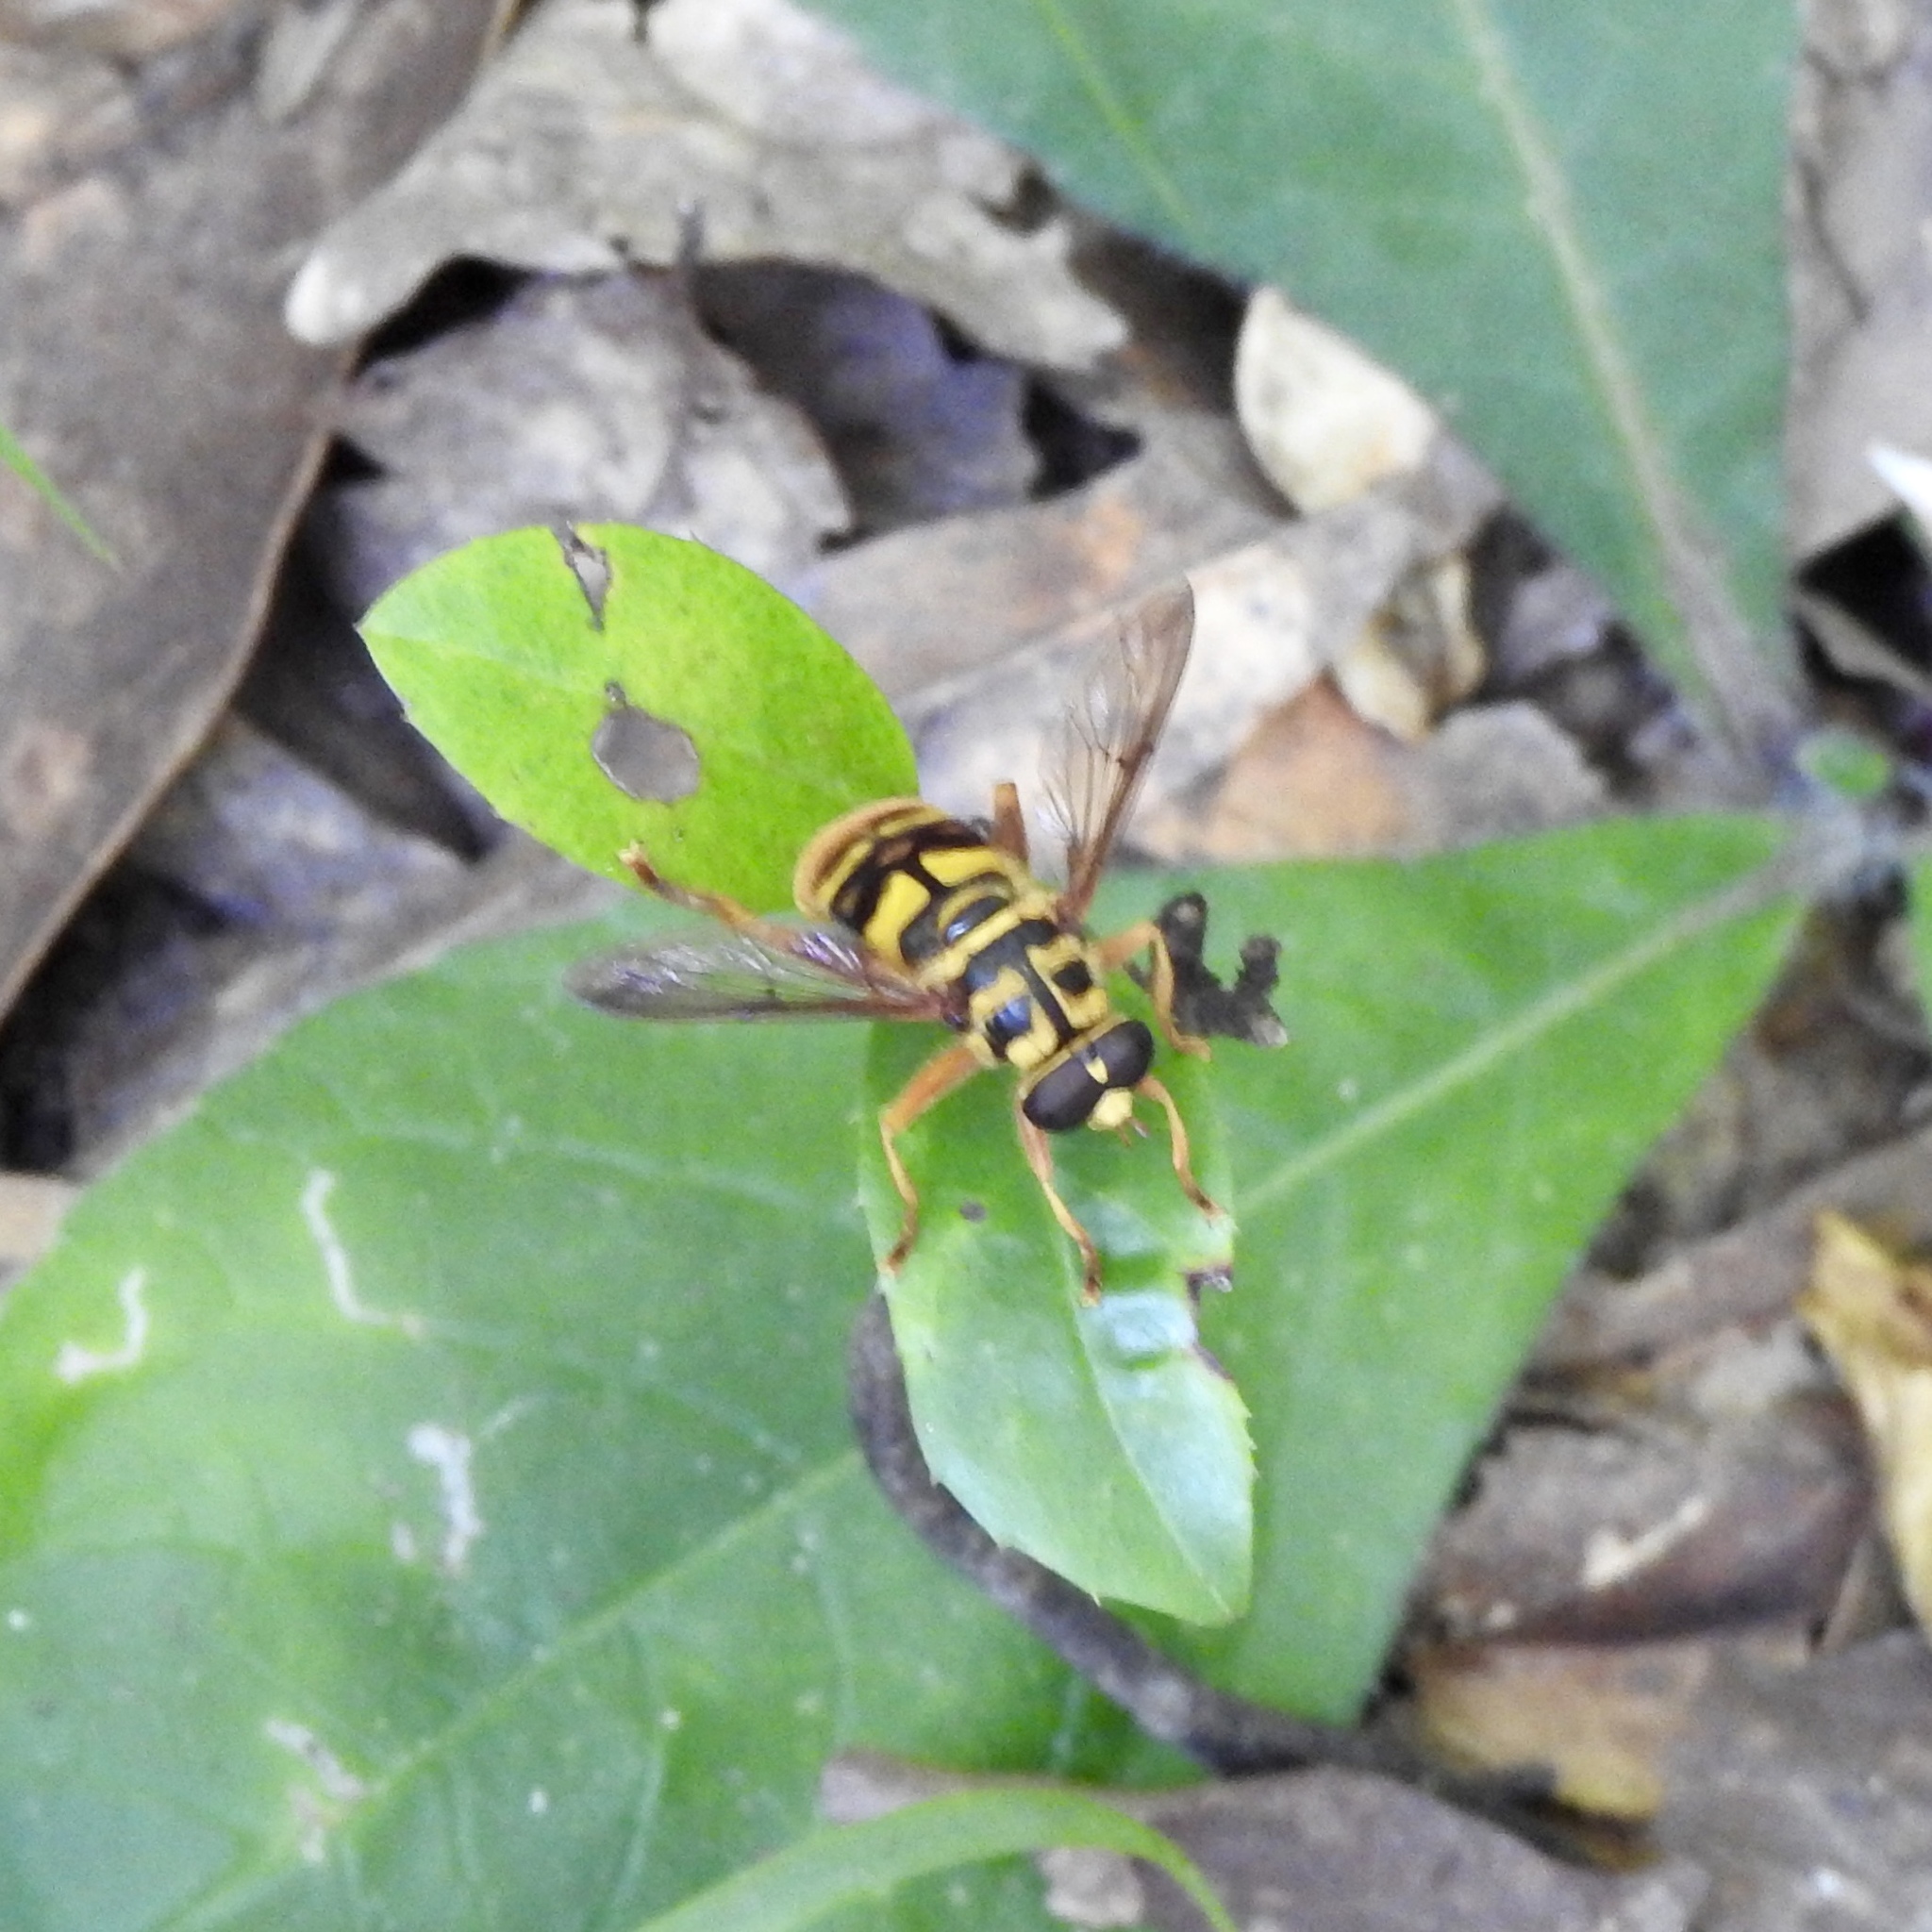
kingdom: Animalia
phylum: Arthropoda
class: Insecta
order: Diptera
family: Syrphidae
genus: Milesia
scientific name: Milesia virginiensis
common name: Virginia giant
